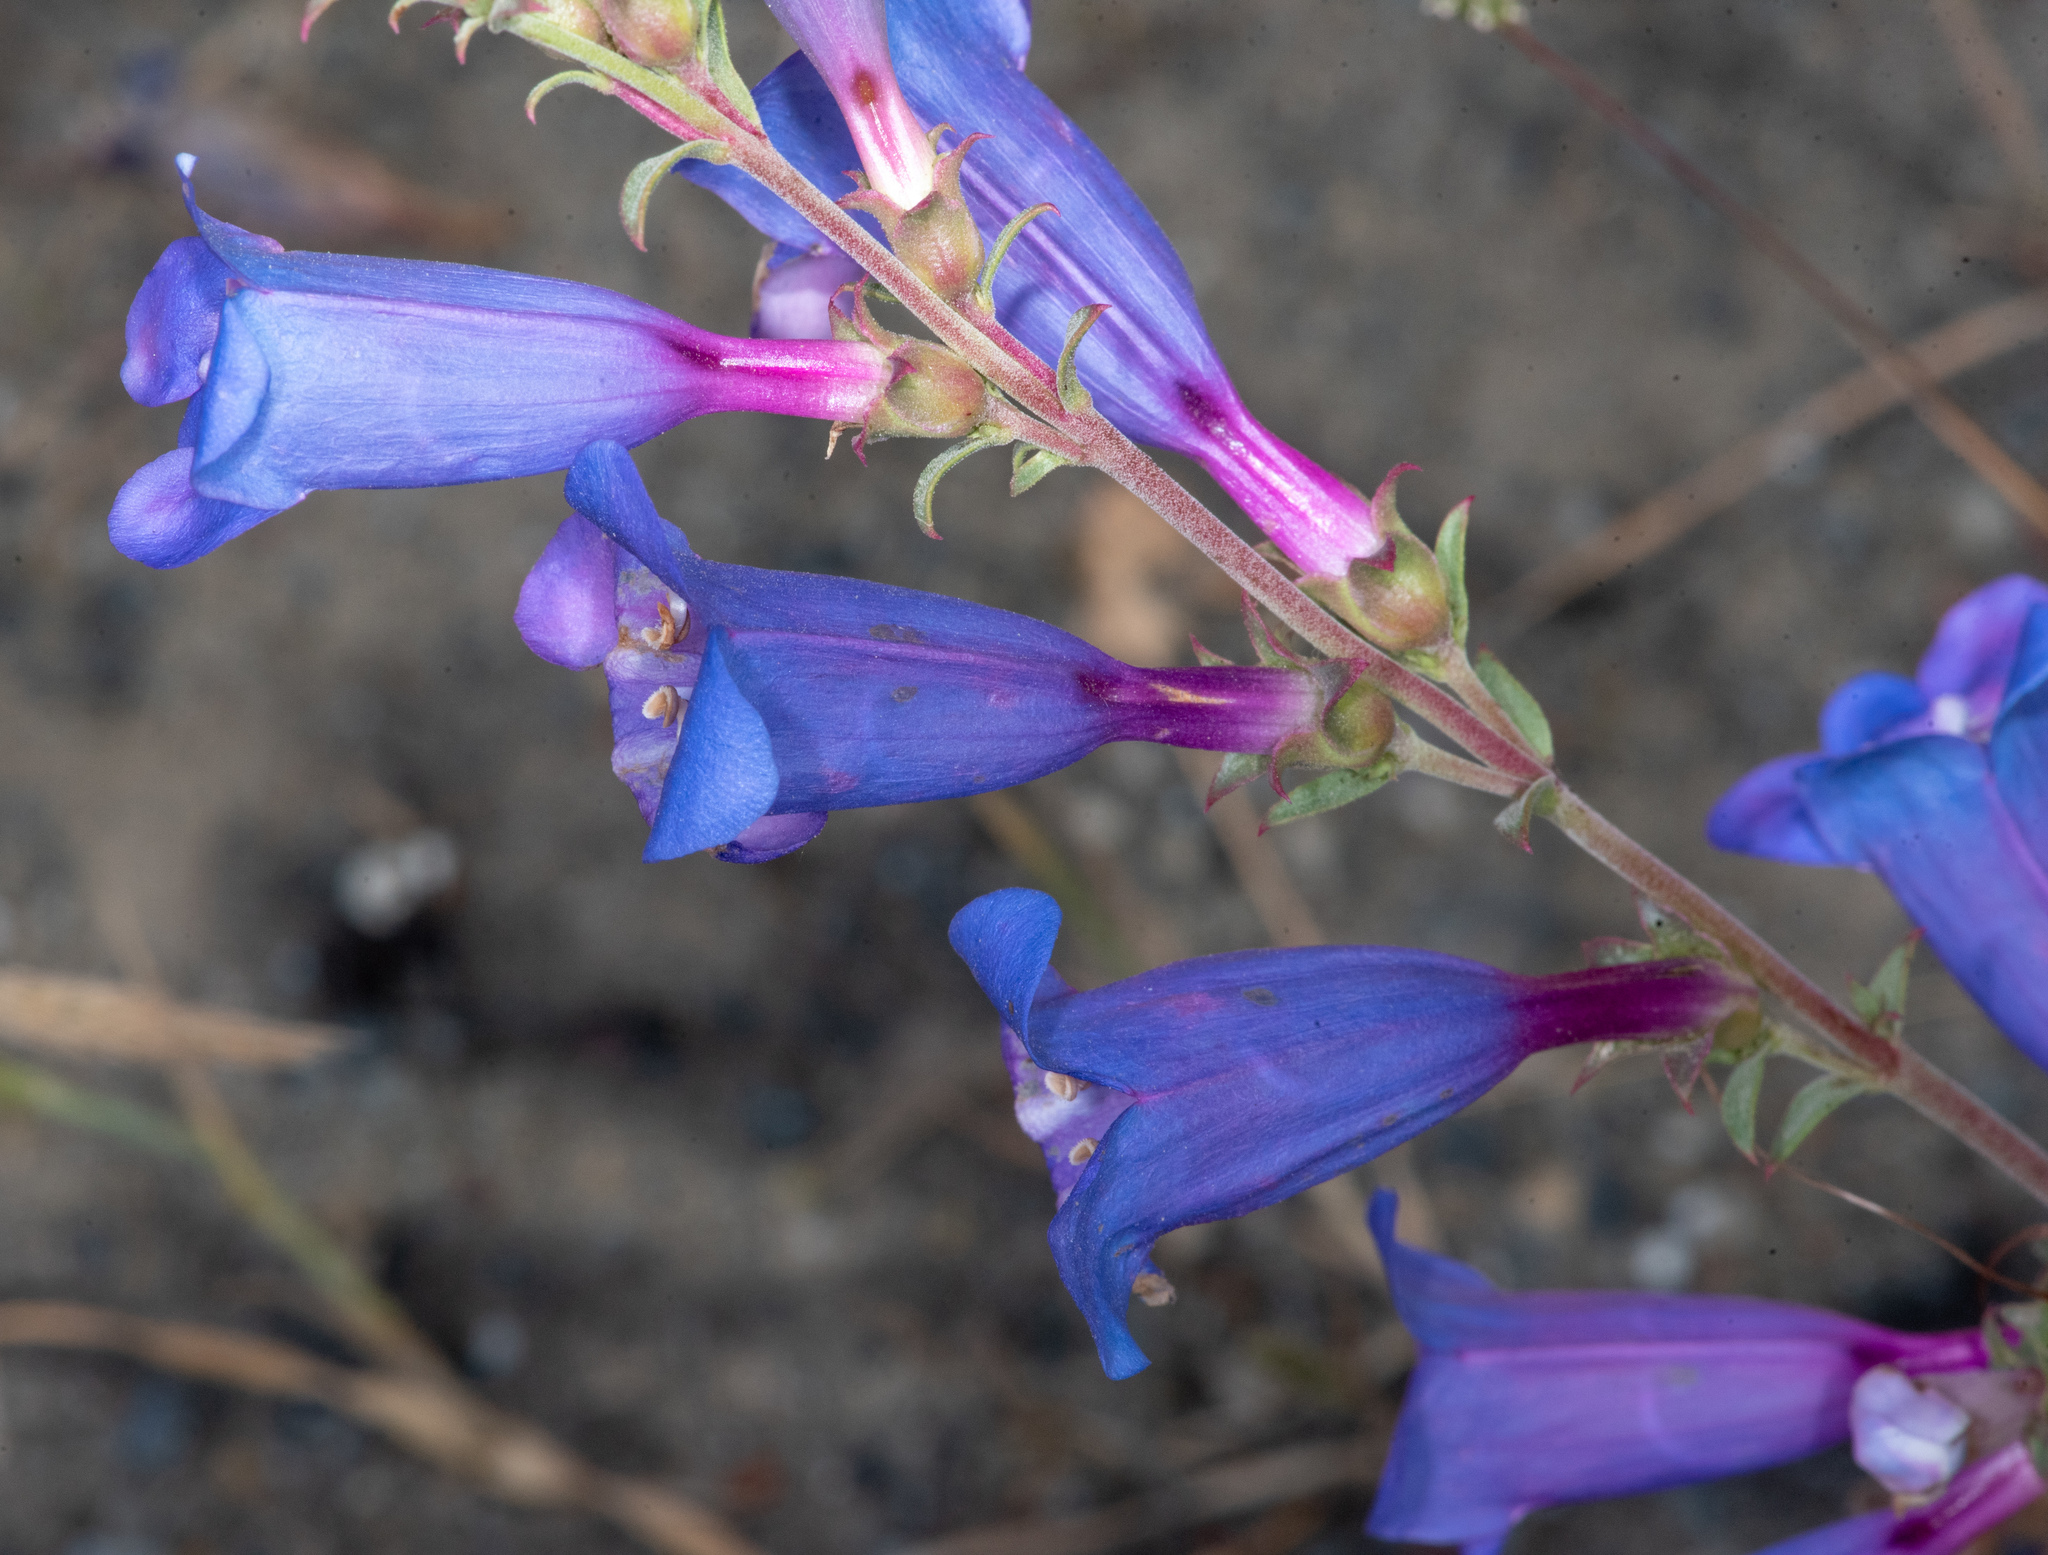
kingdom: Plantae
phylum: Tracheophyta
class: Magnoliopsida
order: Lamiales
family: Plantaginaceae
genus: Penstemon
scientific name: Penstemon heterophyllus
